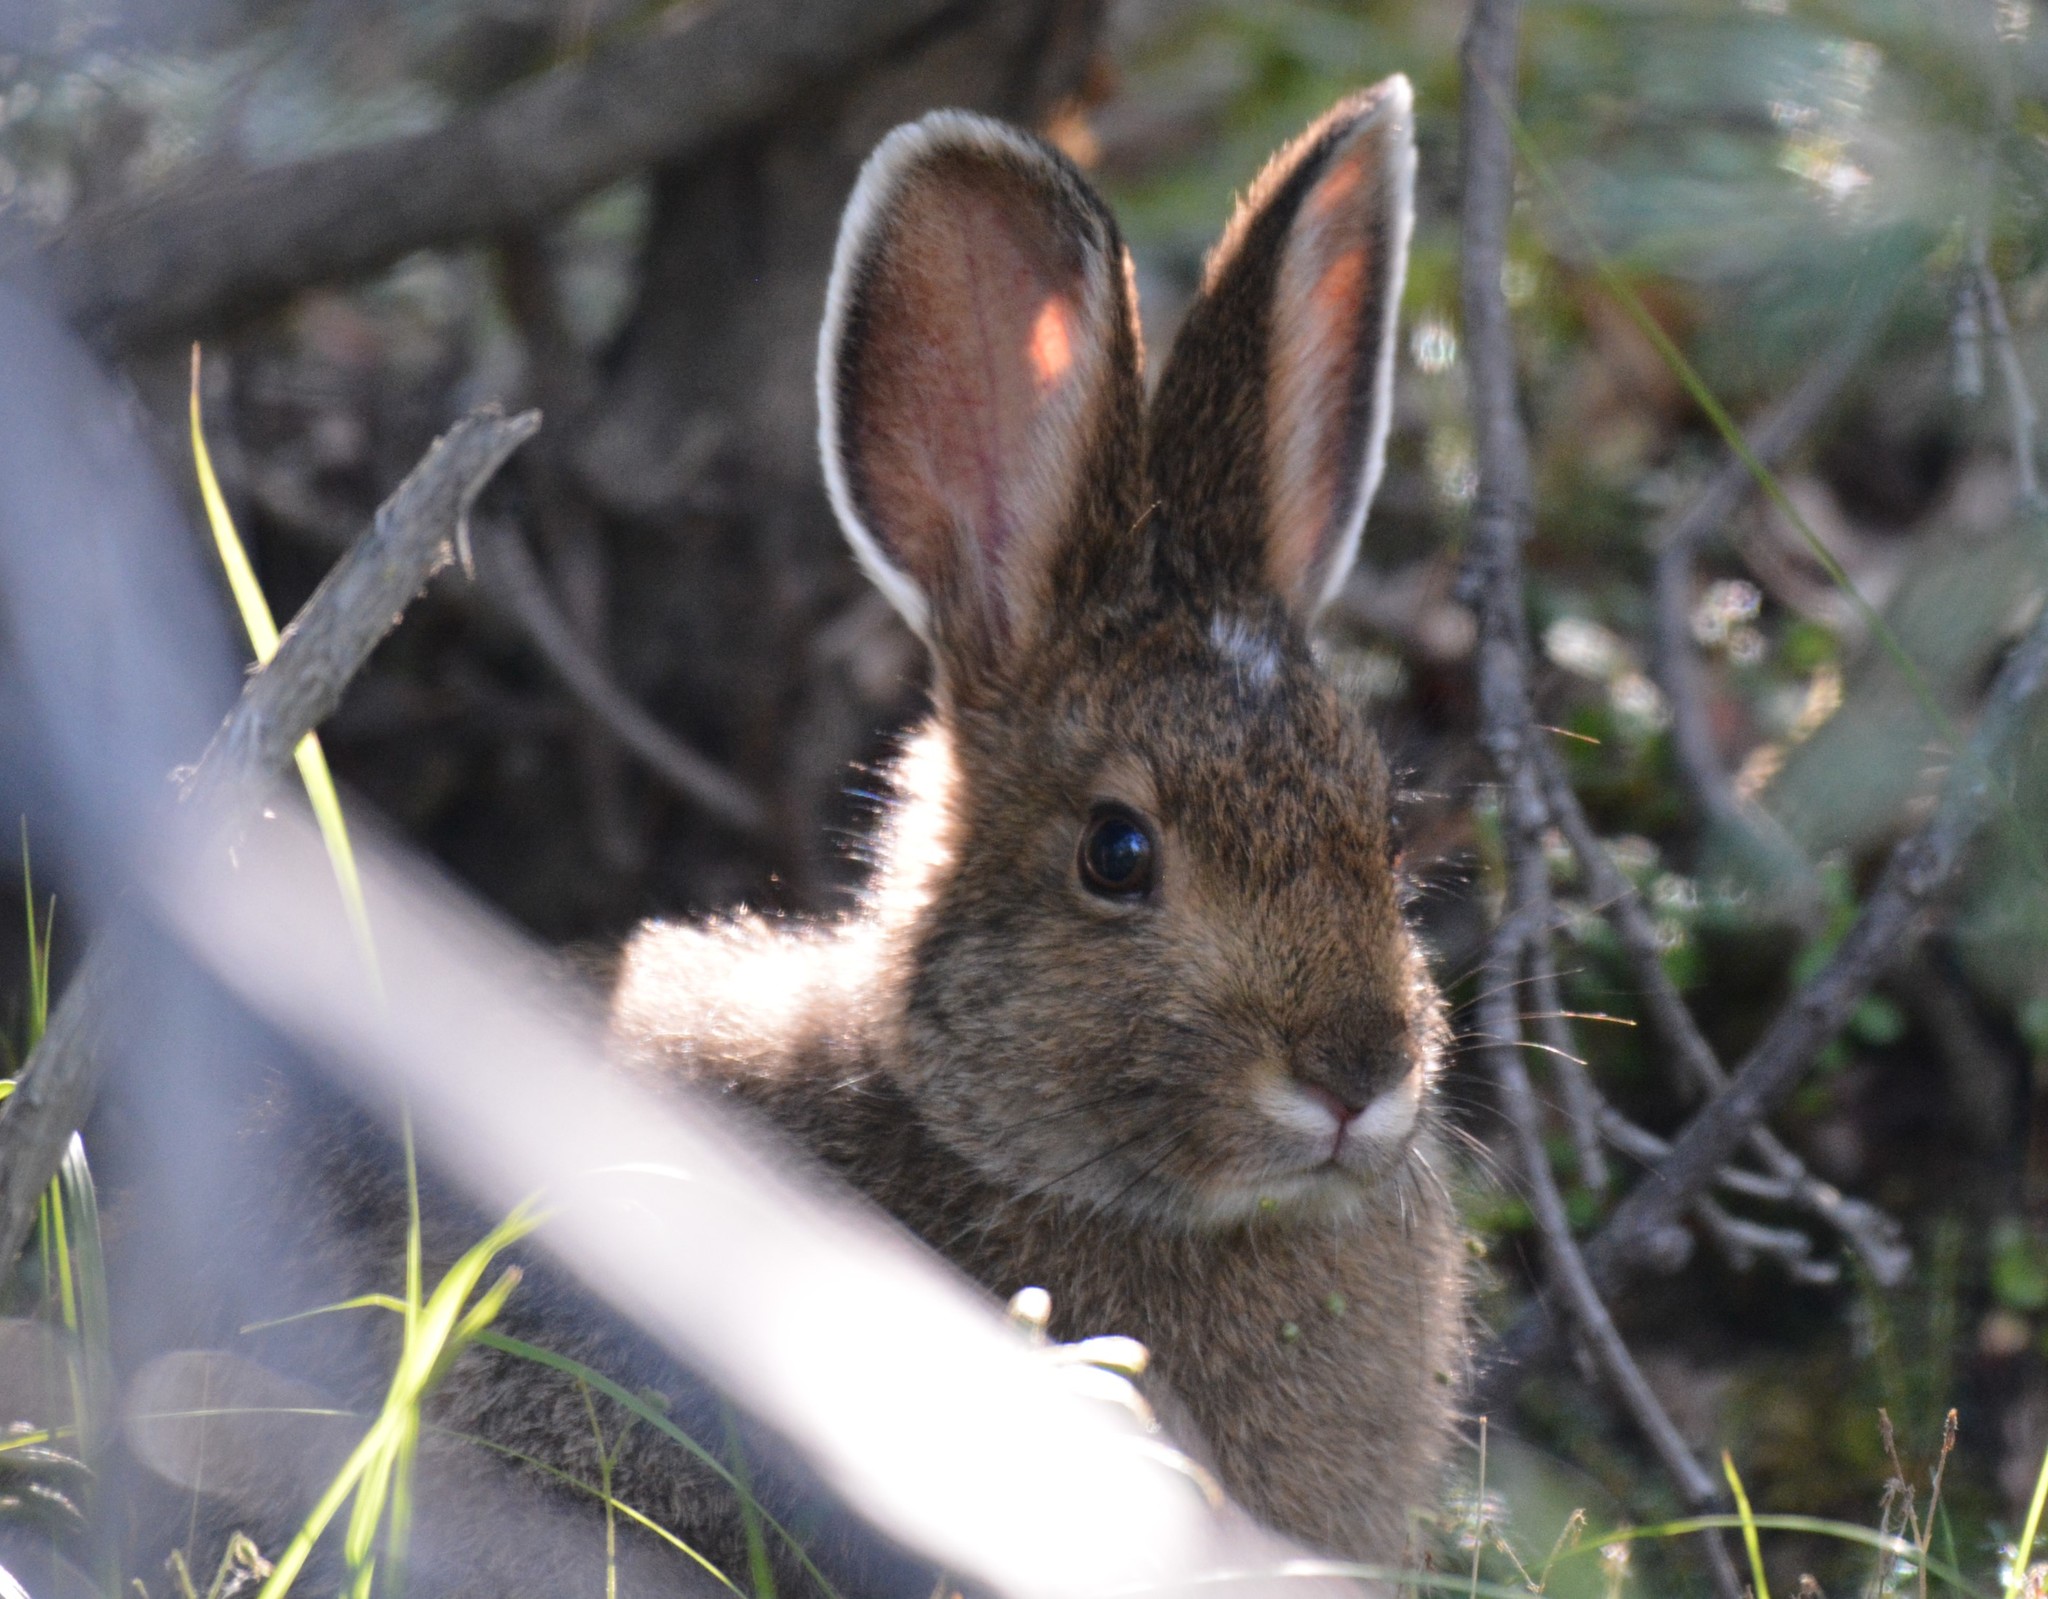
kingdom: Animalia
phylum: Chordata
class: Mammalia
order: Lagomorpha
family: Leporidae
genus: Lepus
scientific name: Lepus americanus
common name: Snowshoe hare
